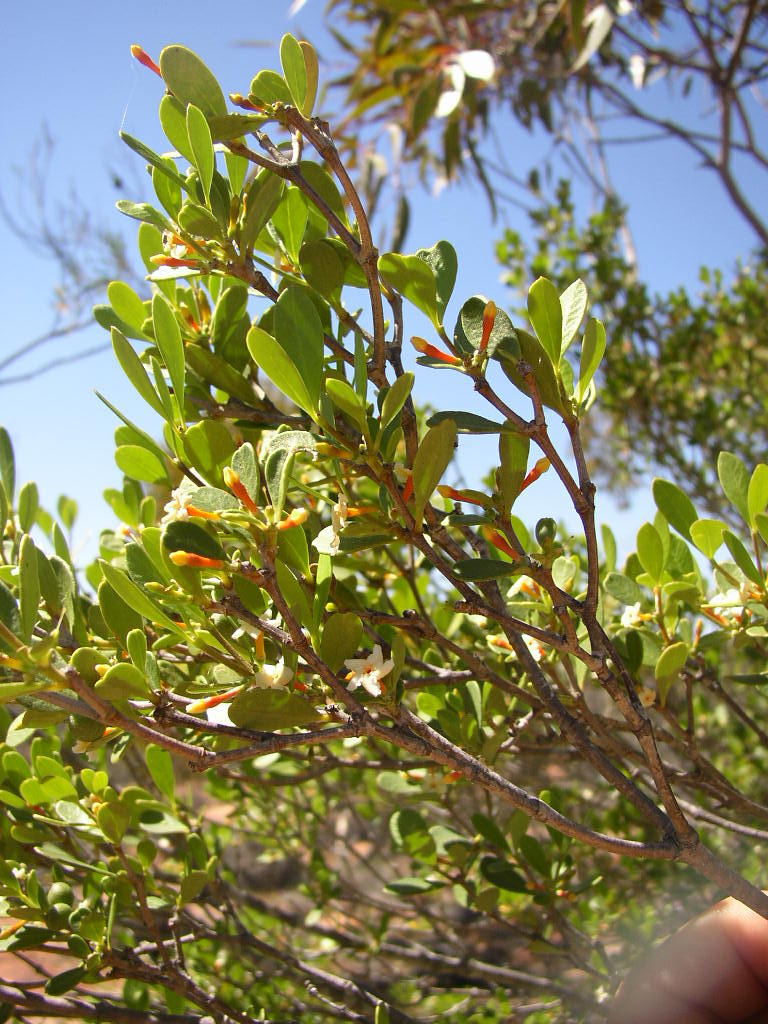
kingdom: Plantae
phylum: Tracheophyta
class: Magnoliopsida
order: Gentianales
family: Apocynaceae
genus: Alyxia
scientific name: Alyxia buxifolia
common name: Dysentery-bush
